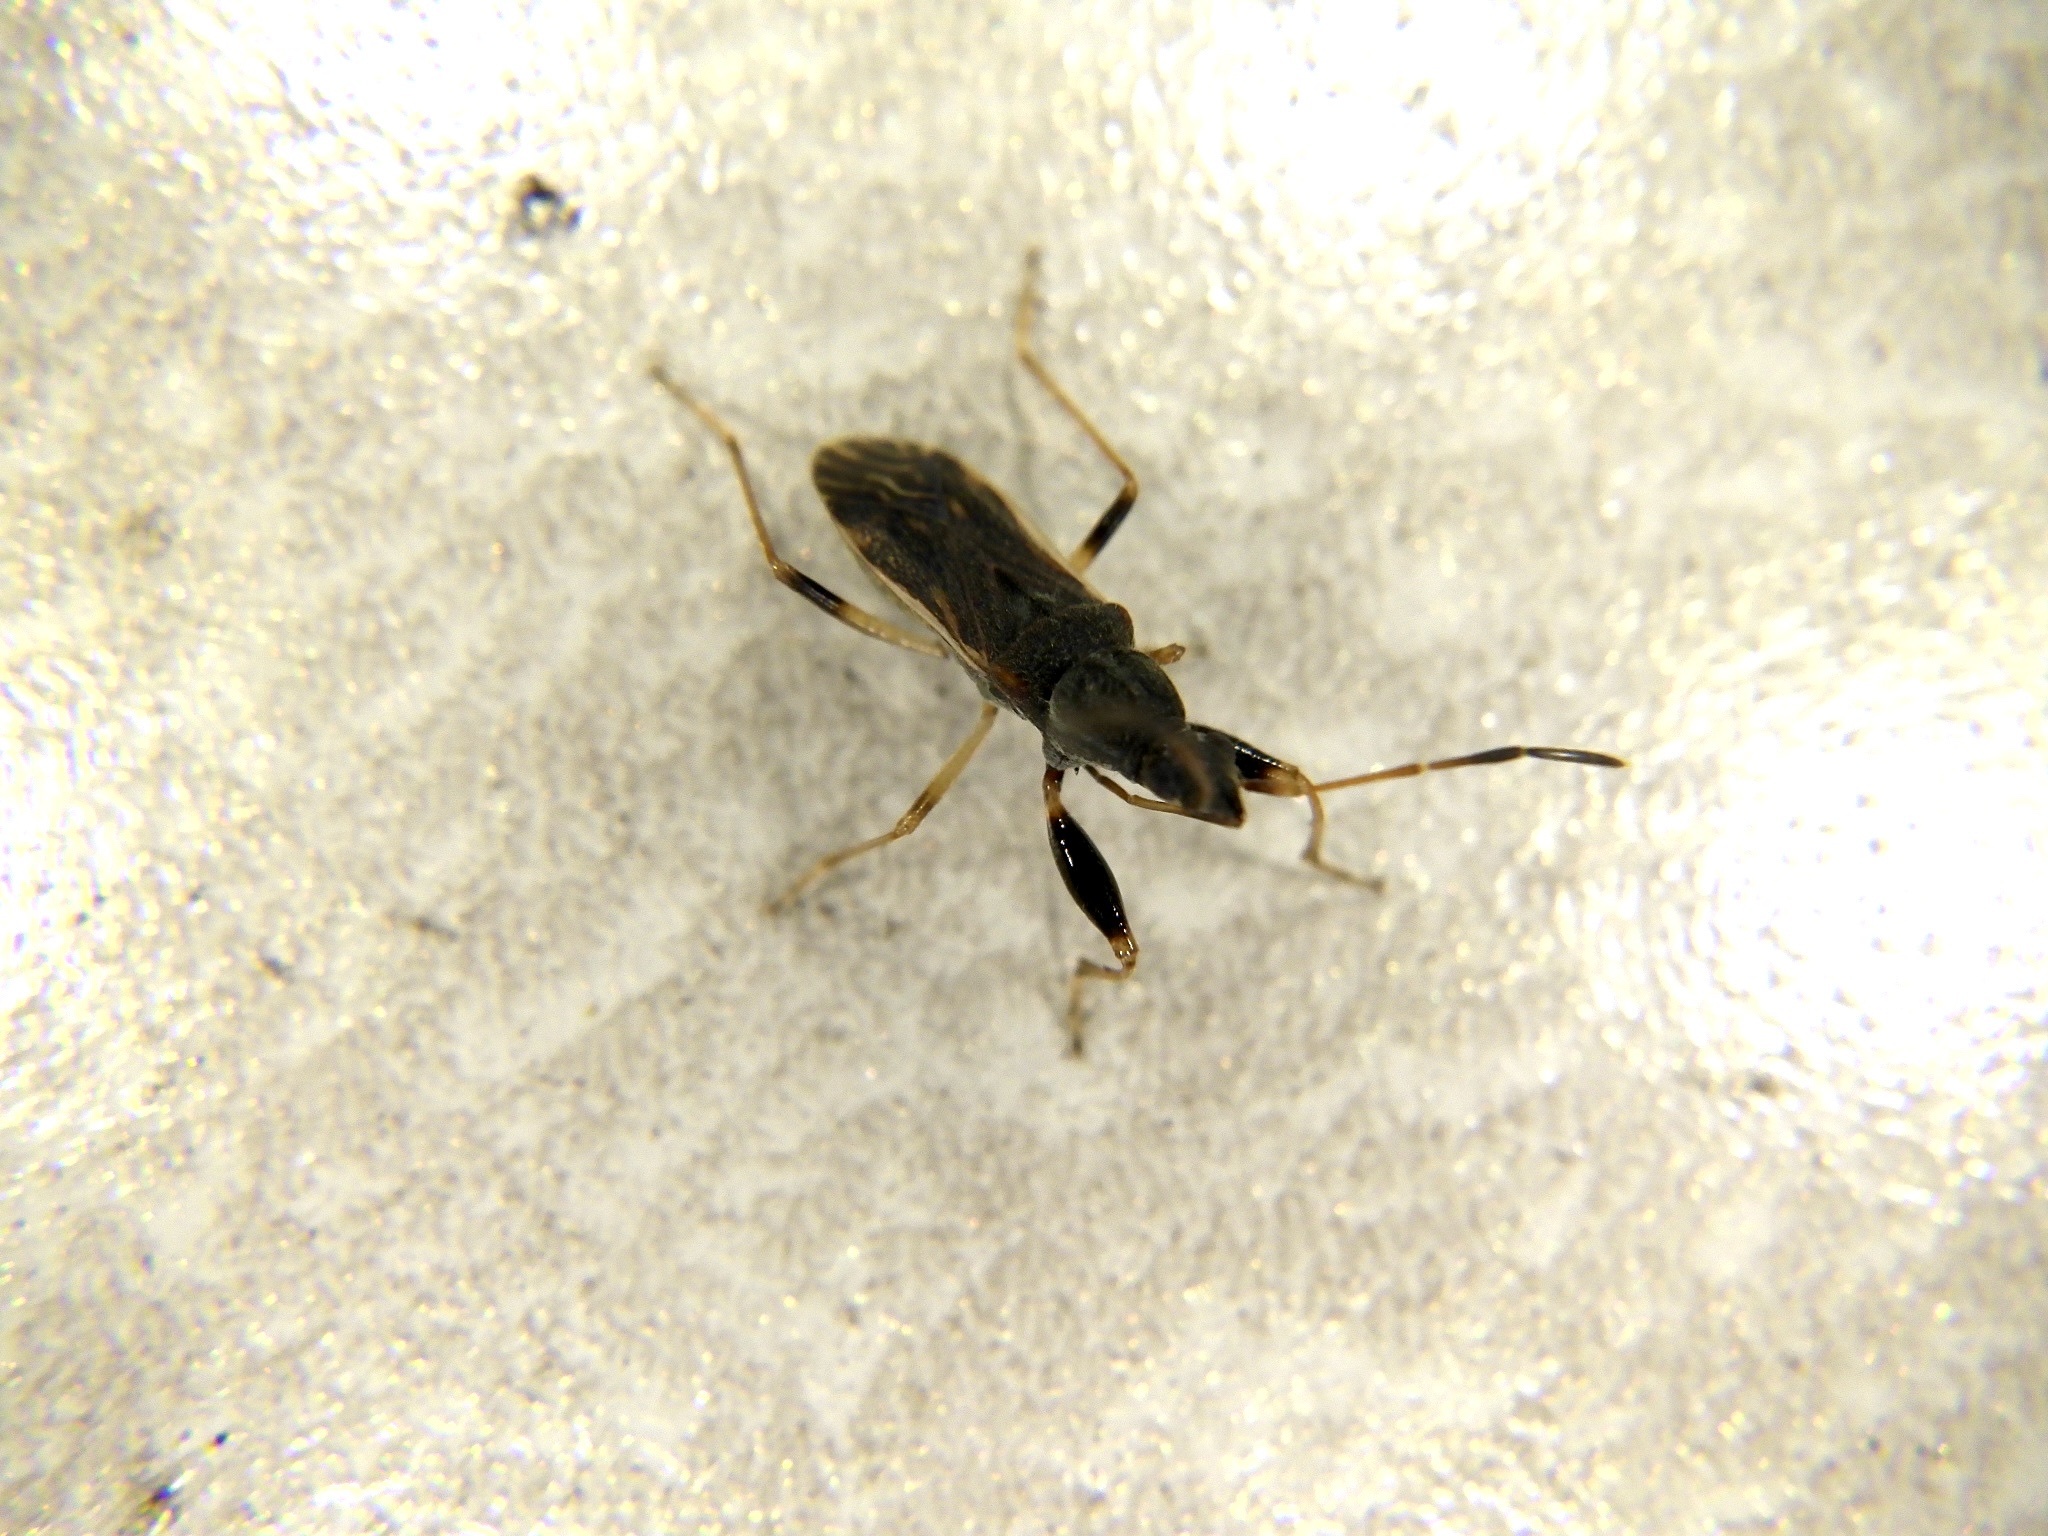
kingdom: Animalia
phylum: Arthropoda
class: Insecta
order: Hemiptera
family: Rhyparochromidae
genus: Horridipamera
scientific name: Horridipamera lateralis
